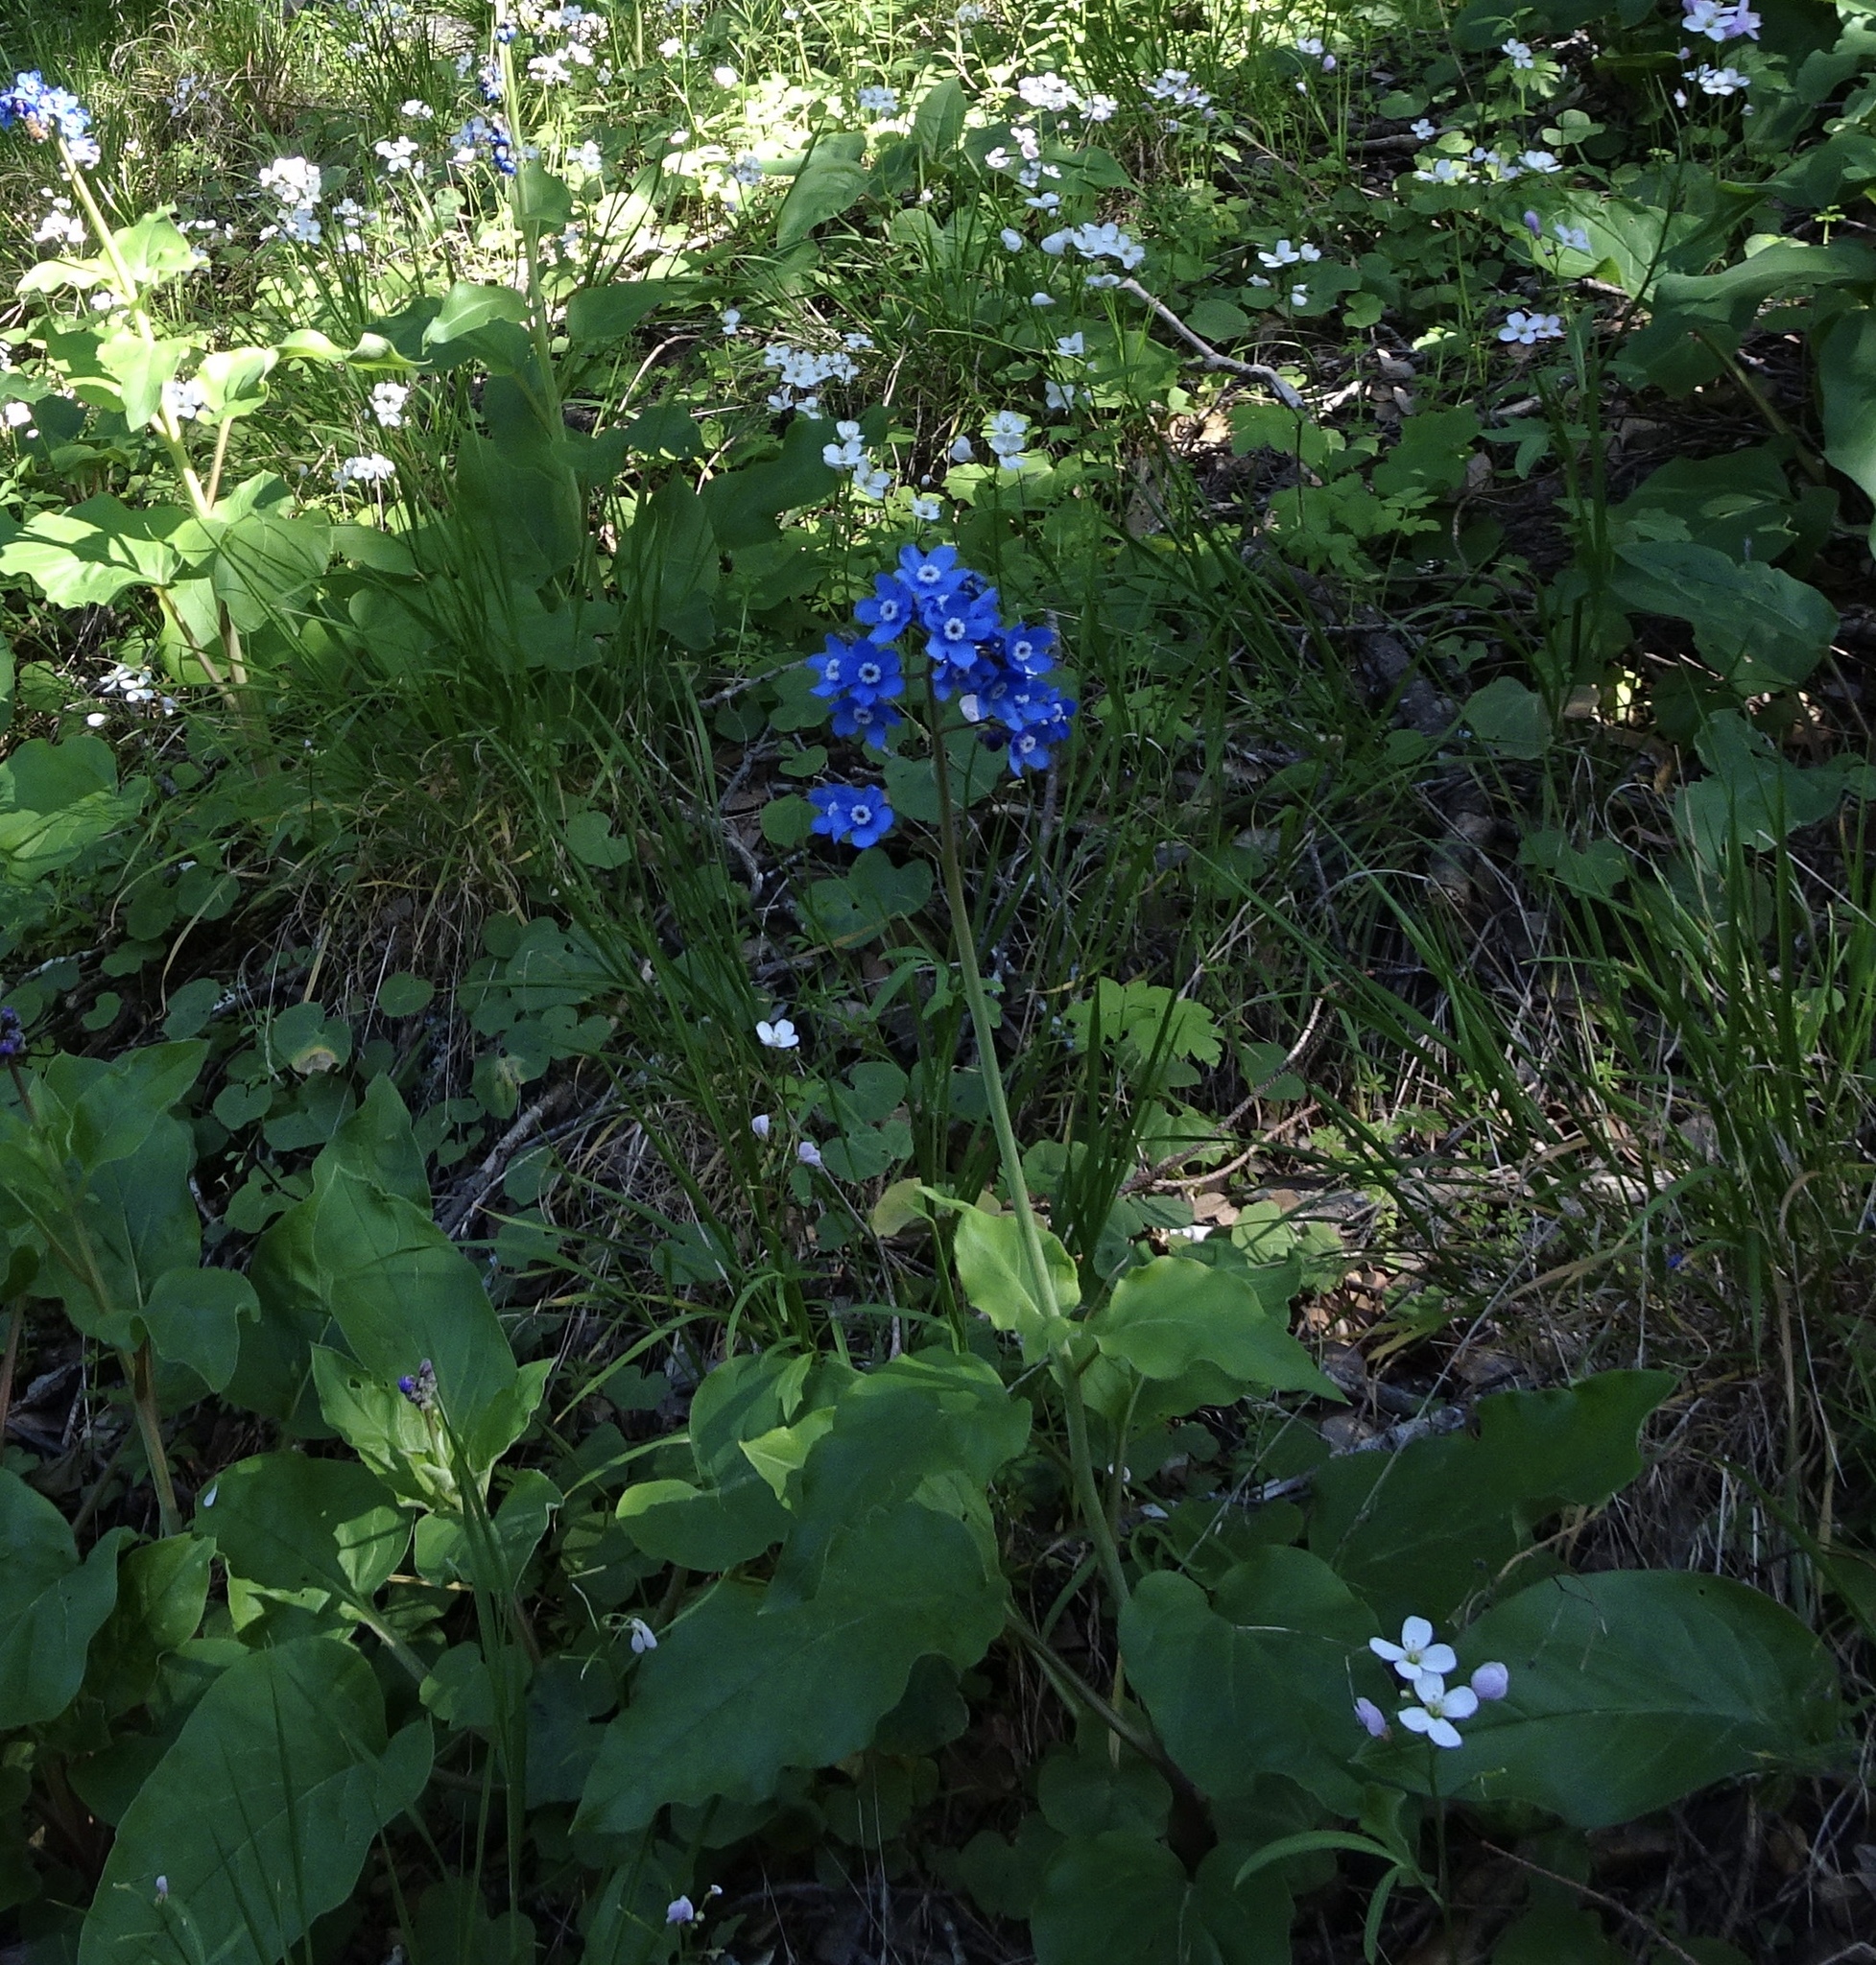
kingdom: Plantae
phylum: Tracheophyta
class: Magnoliopsida
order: Boraginales
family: Boraginaceae
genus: Adelinia
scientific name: Adelinia grande
